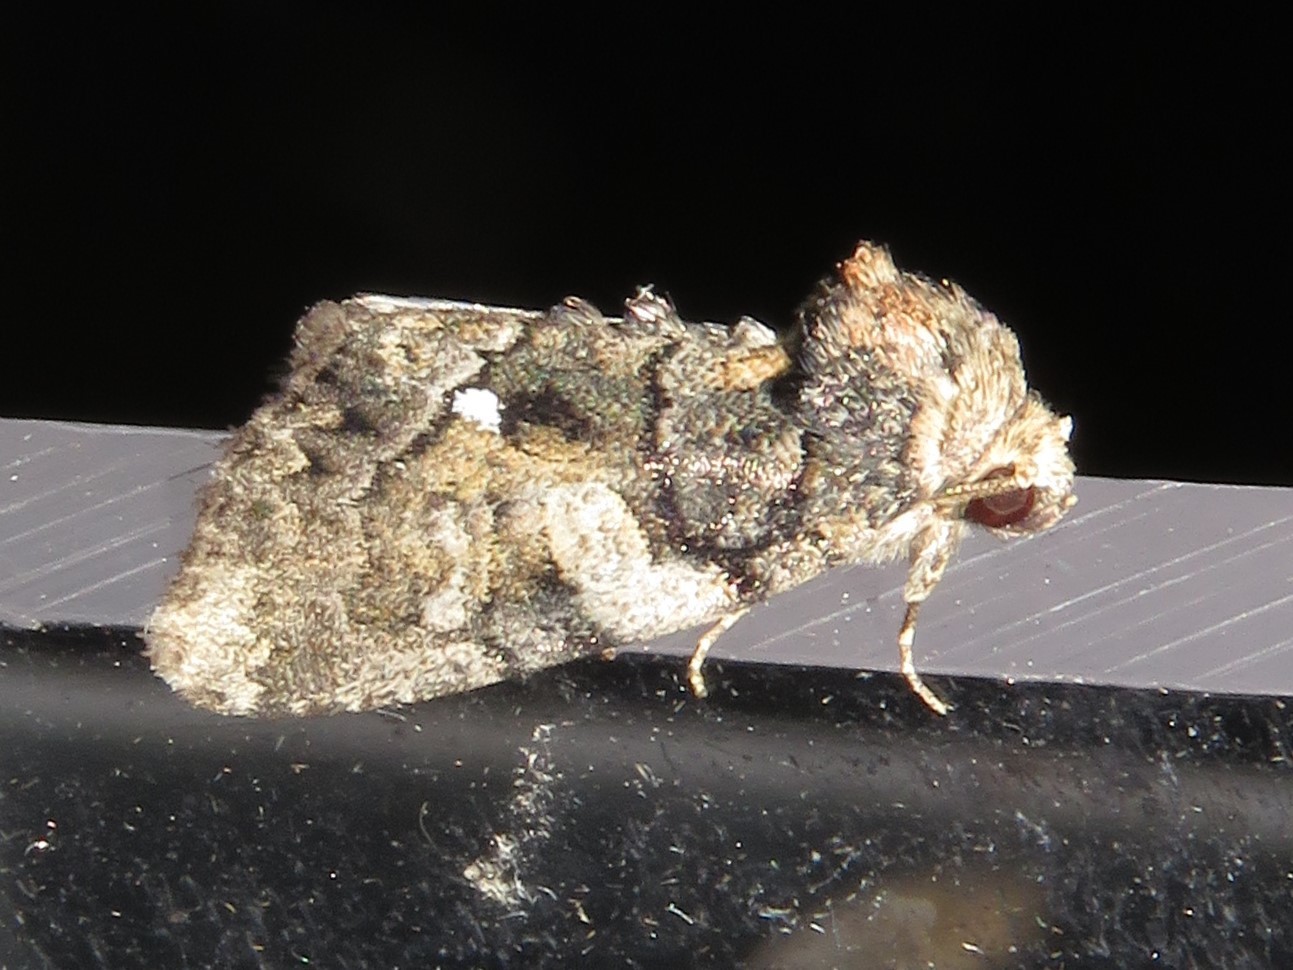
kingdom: Animalia
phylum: Arthropoda
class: Insecta
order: Lepidoptera
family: Noctuidae
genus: Chytonix
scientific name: Chytonix palliatricula
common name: Cloaked marvel
